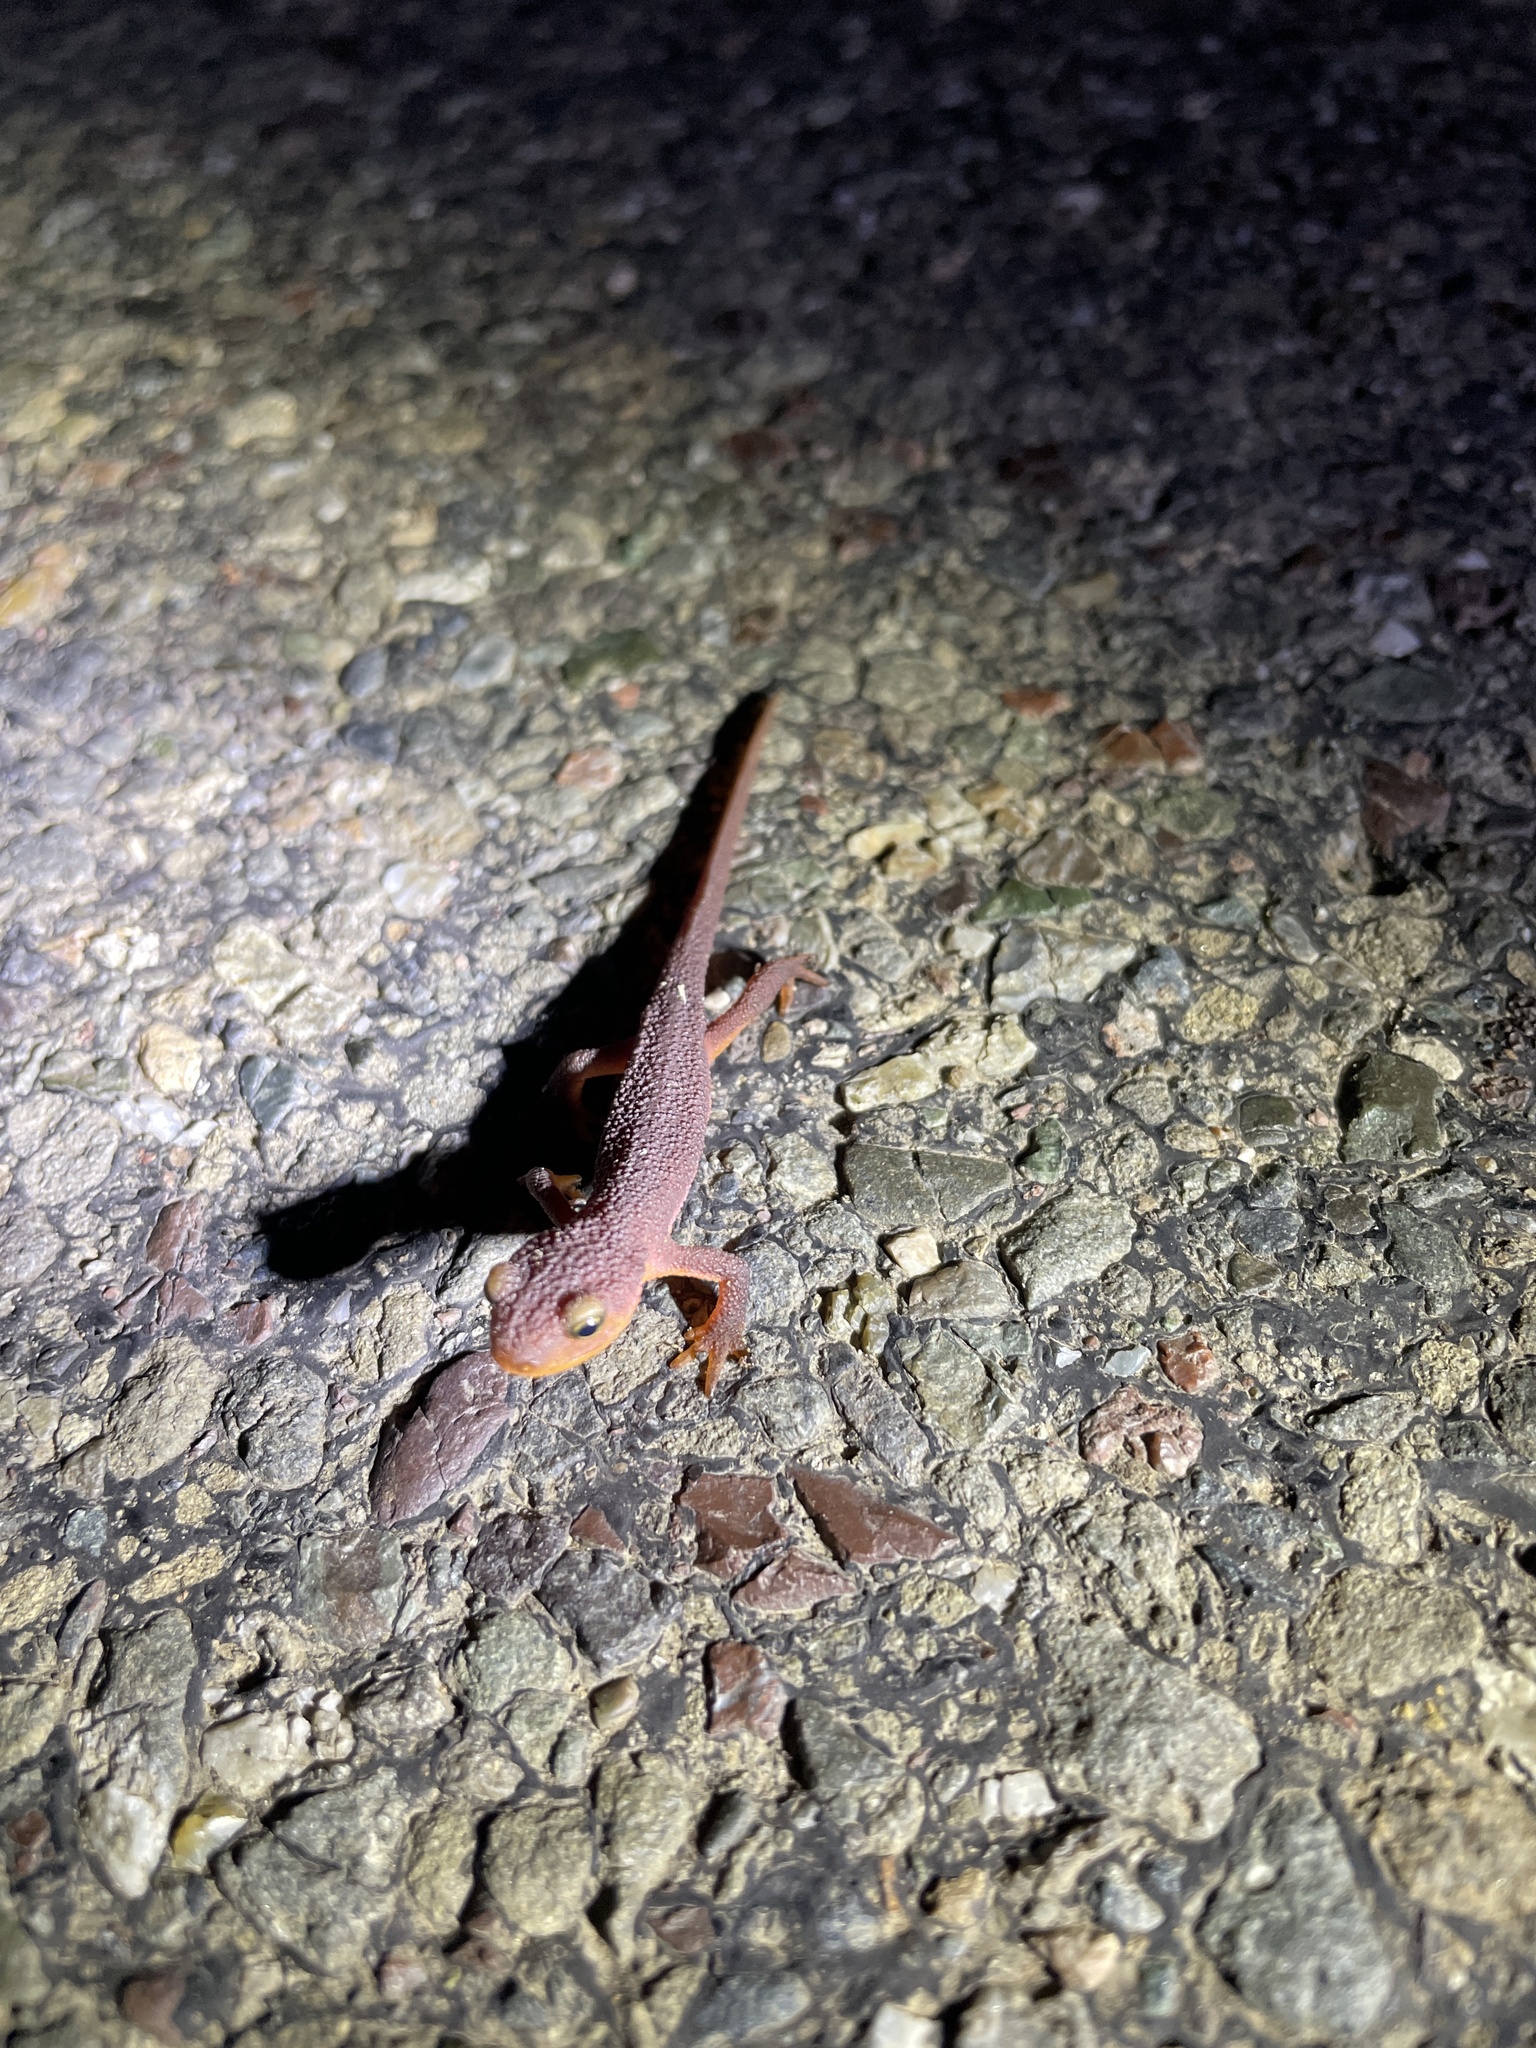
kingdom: Animalia
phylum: Chordata
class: Amphibia
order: Caudata
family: Salamandridae
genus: Taricha
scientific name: Taricha torosa
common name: California newt
